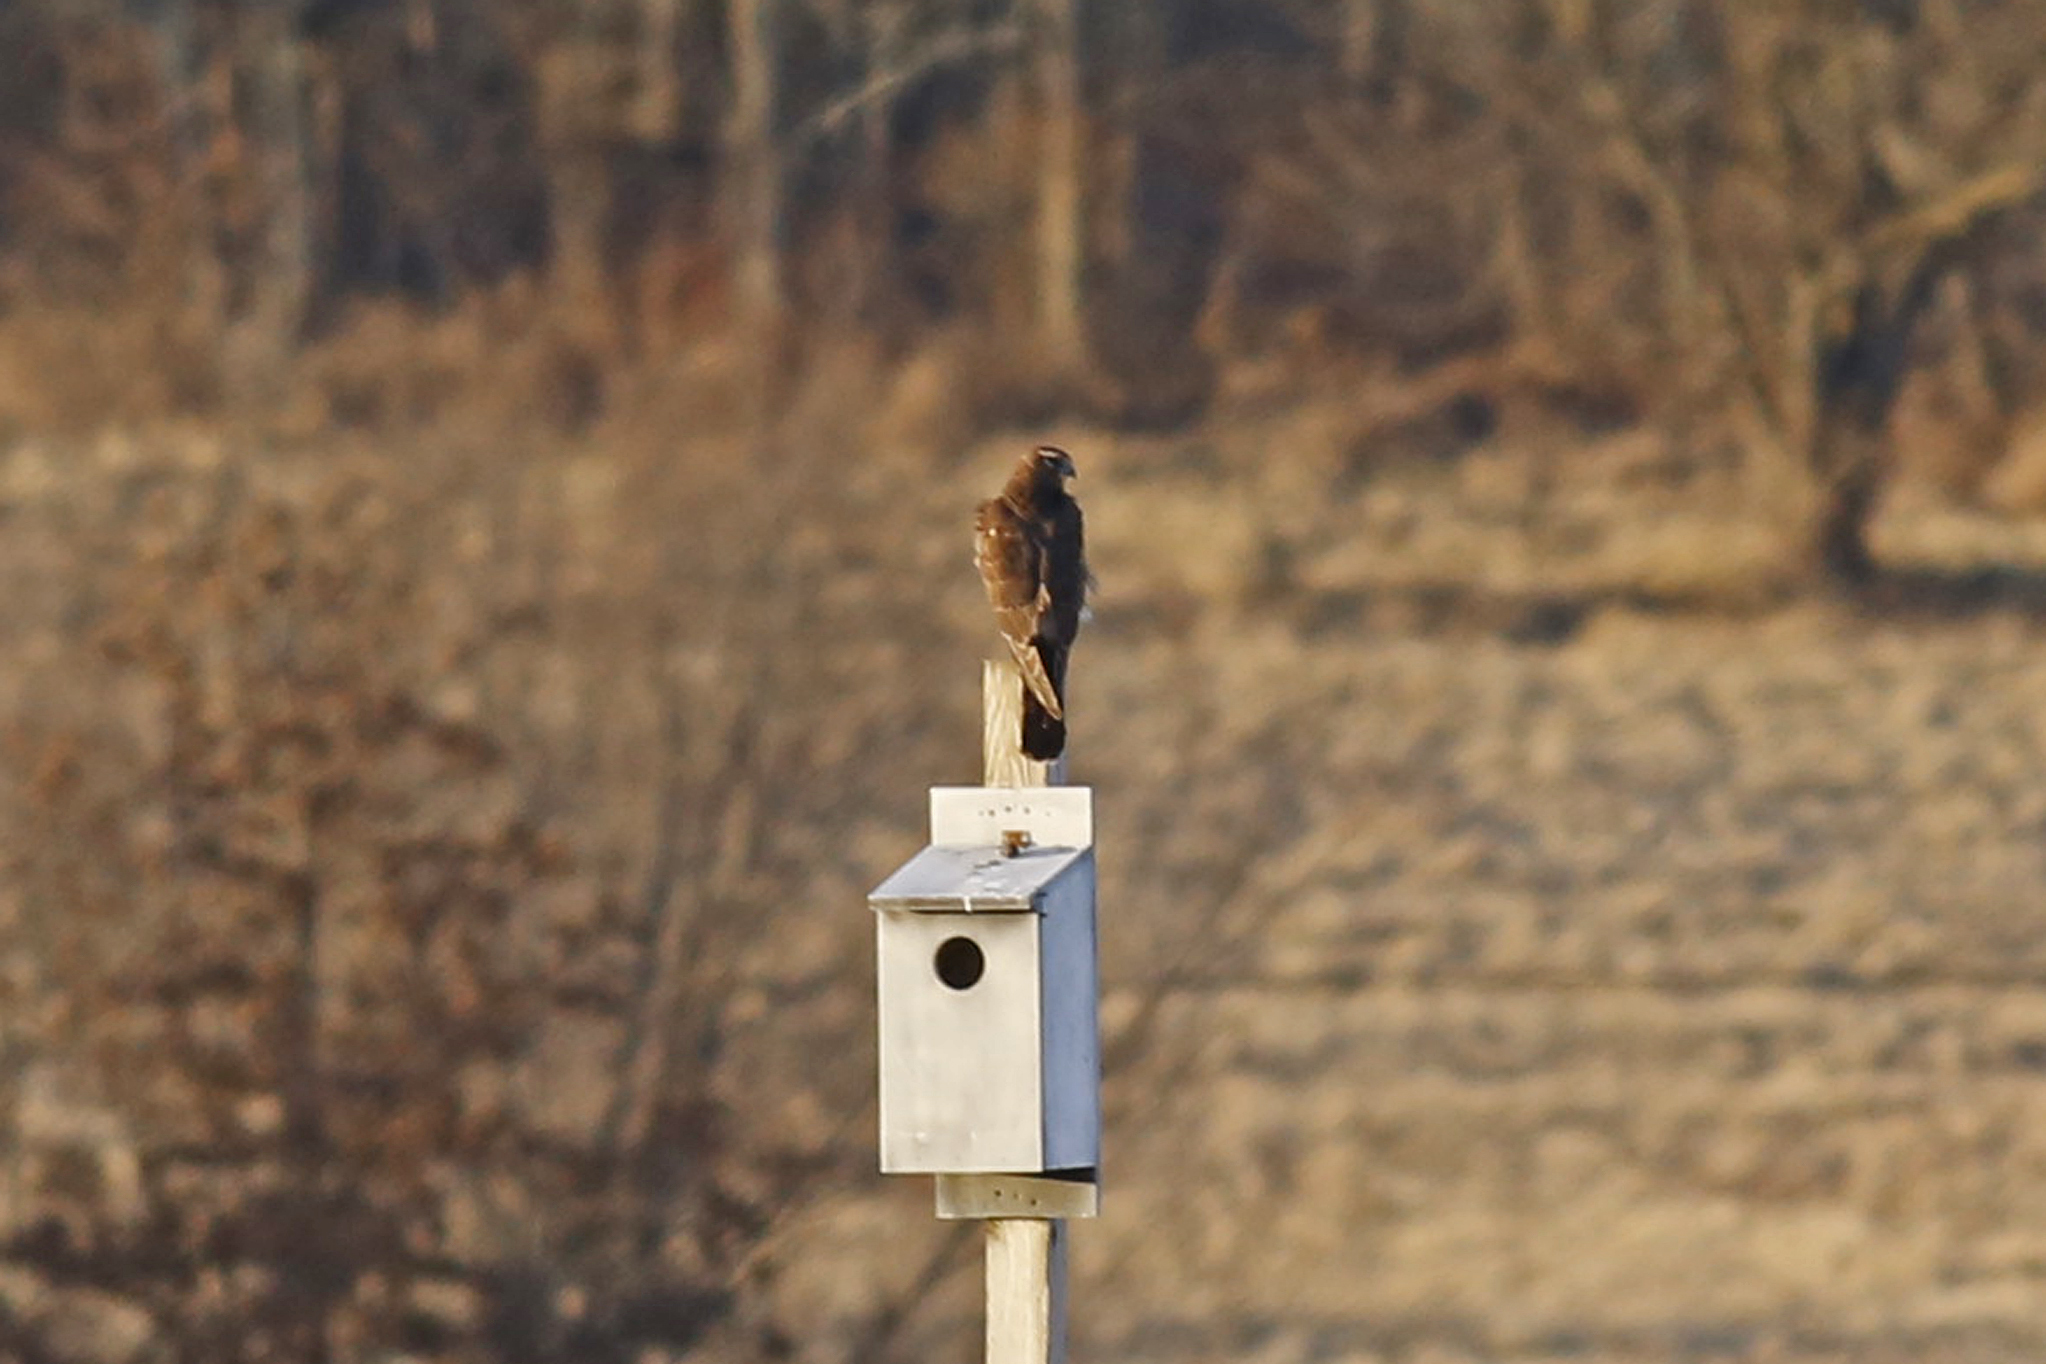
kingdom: Animalia
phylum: Chordata
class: Aves
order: Accipitriformes
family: Accipitridae
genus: Circus
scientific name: Circus cyaneus
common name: Hen harrier
